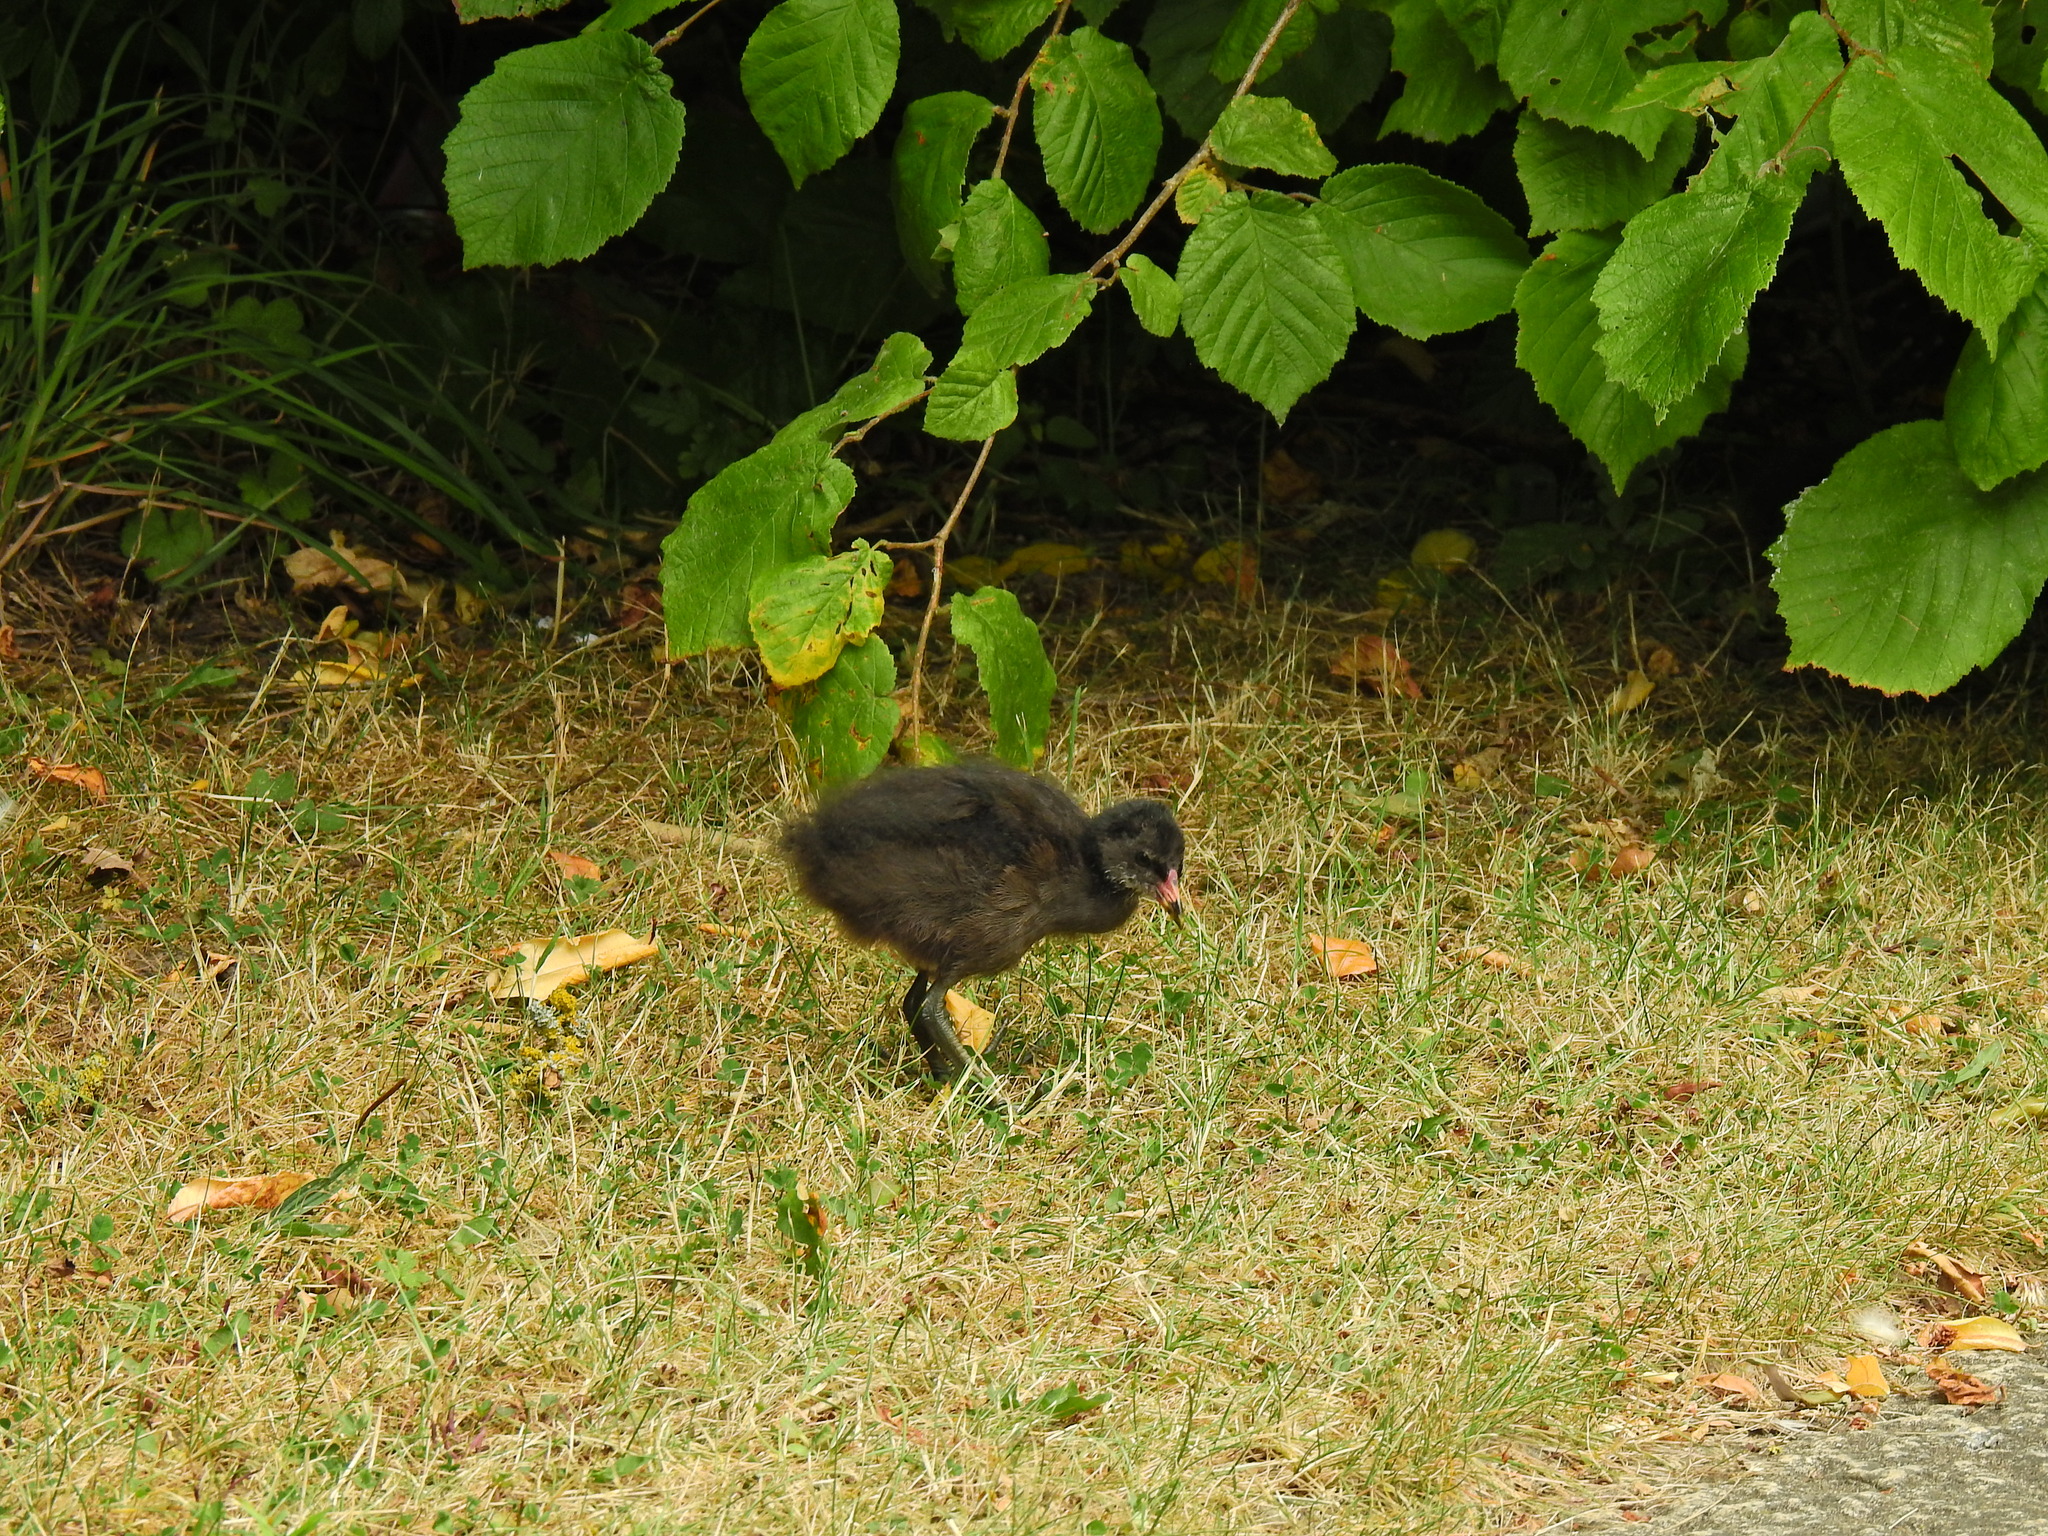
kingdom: Animalia
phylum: Chordata
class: Aves
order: Gruiformes
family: Rallidae
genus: Gallinula
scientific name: Gallinula chloropus
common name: Common moorhen
